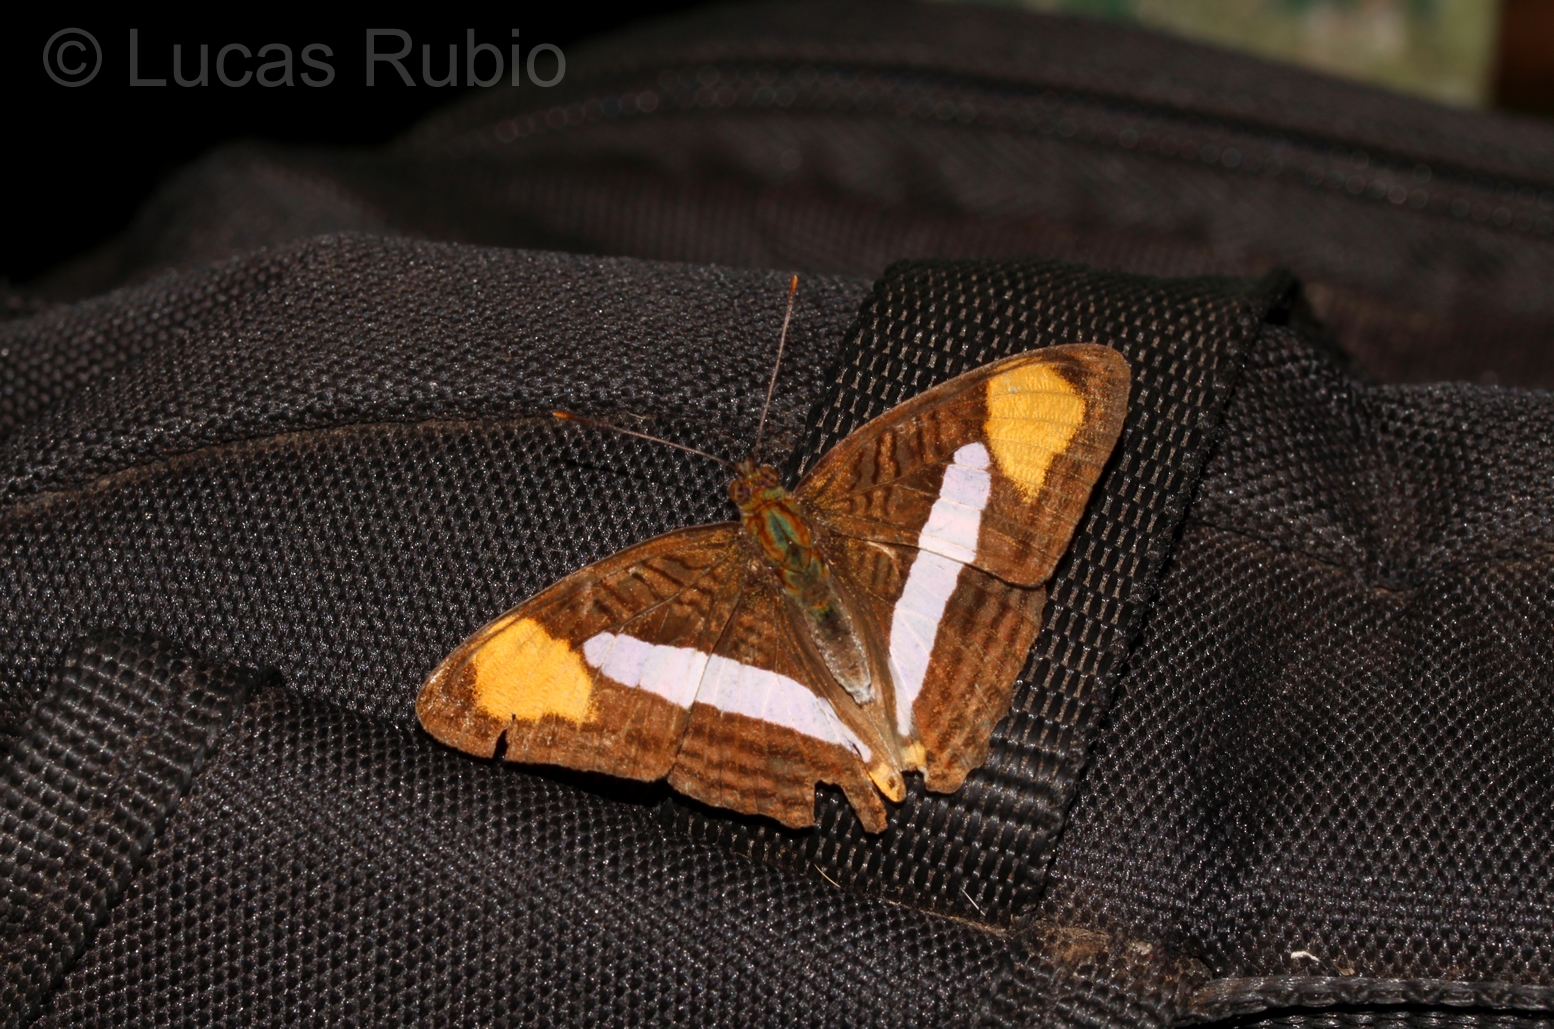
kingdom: Animalia
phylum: Arthropoda
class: Insecta
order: Lepidoptera
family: Nymphalidae
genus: Limenitis
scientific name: Limenitis thessalia
